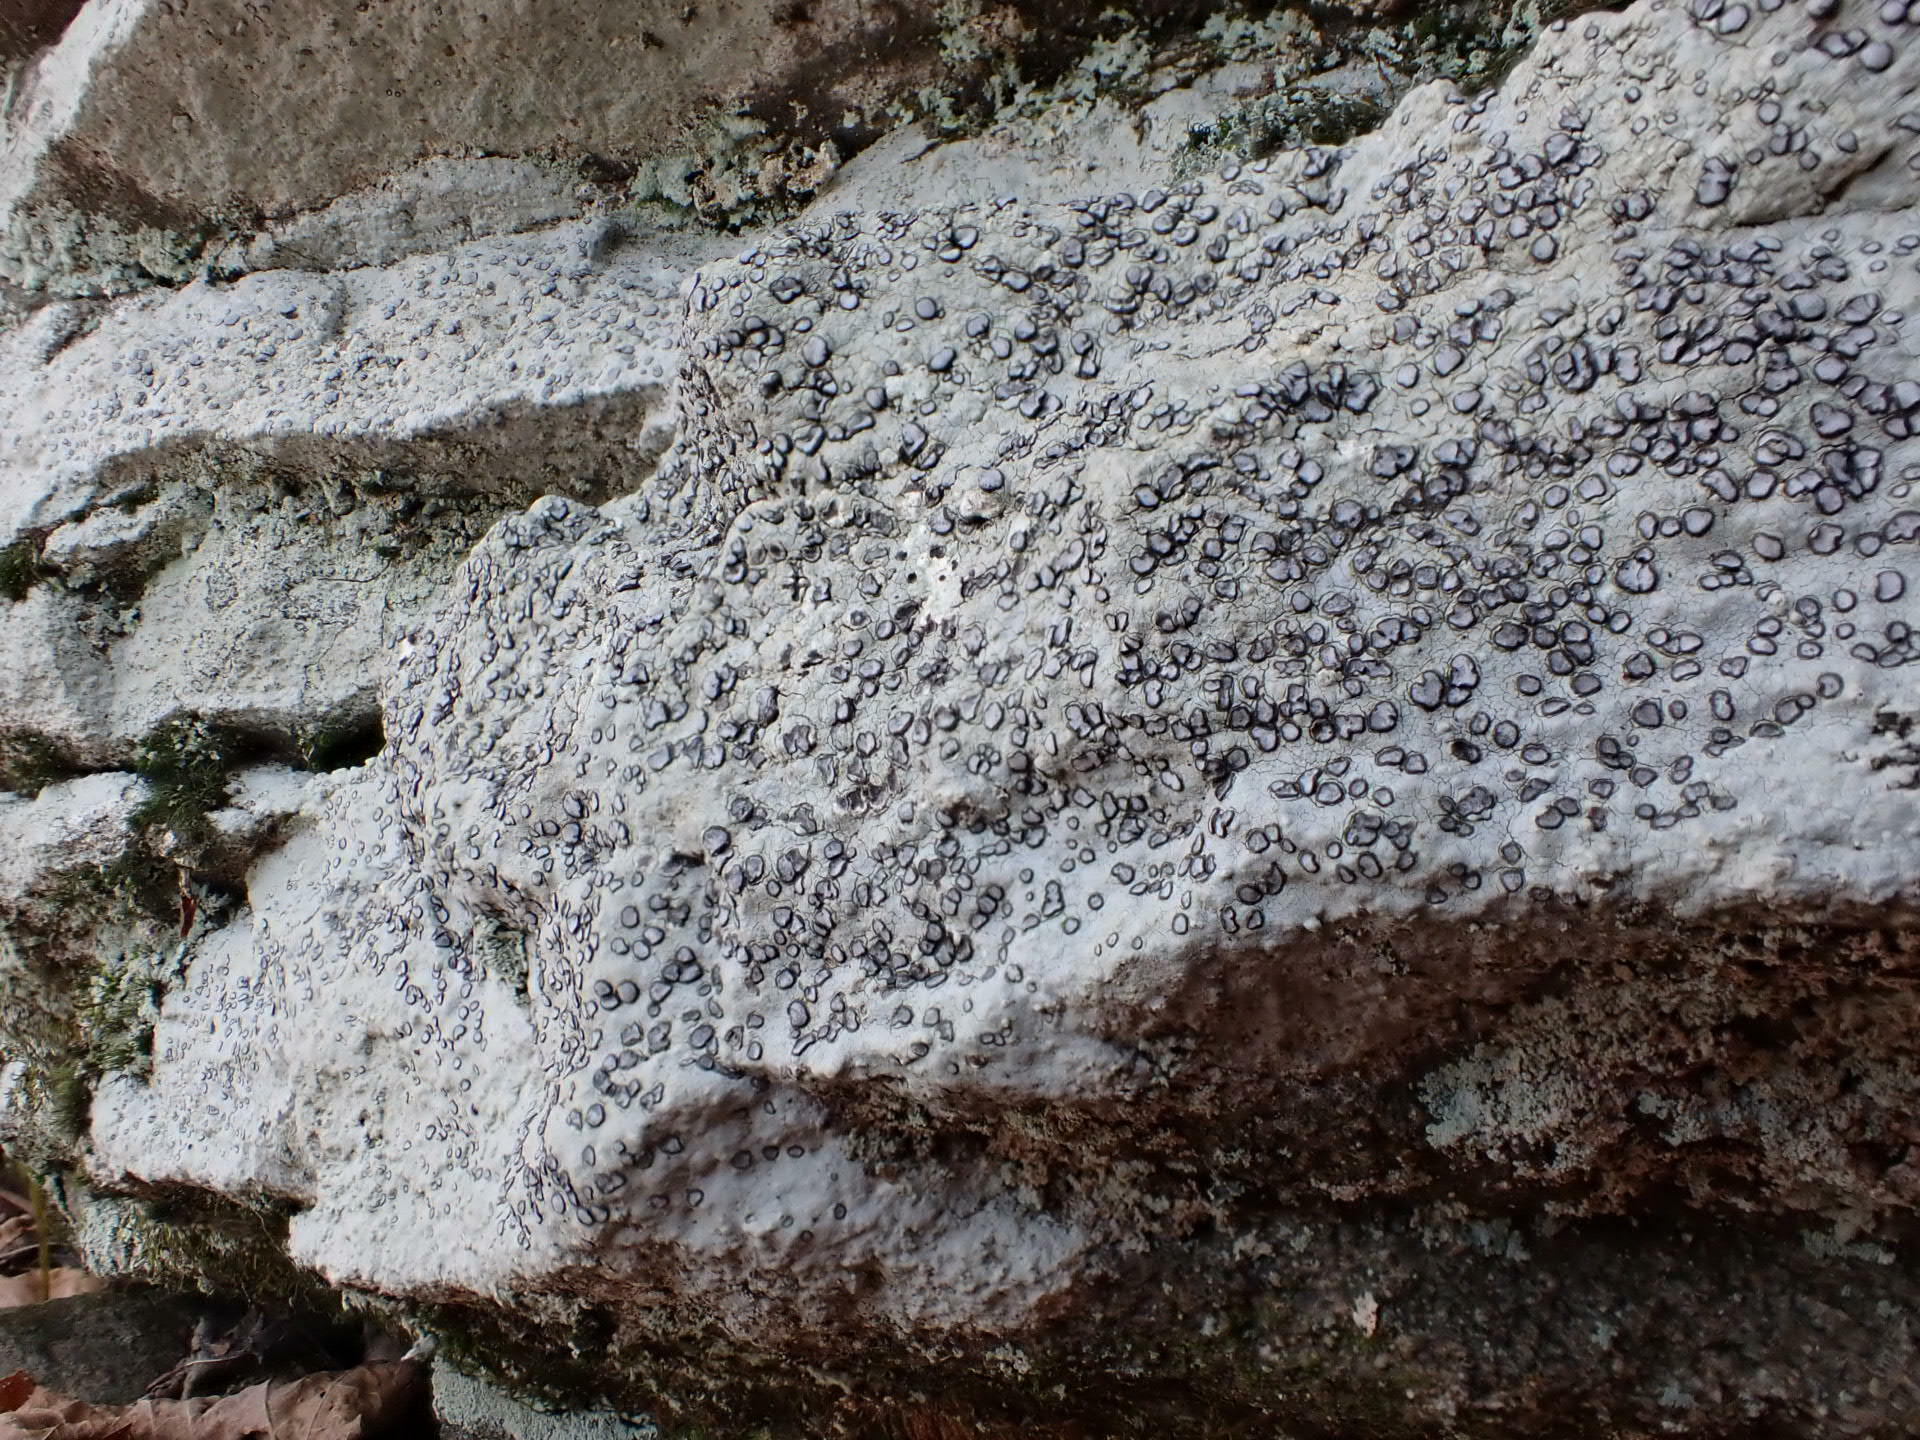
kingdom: Fungi
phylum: Ascomycota
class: Lecanoromycetes
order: Lecideales
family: Lecideaceae
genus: Porpidia
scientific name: Porpidia albocaerulescens
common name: Smokey-eyed boulder lichen
